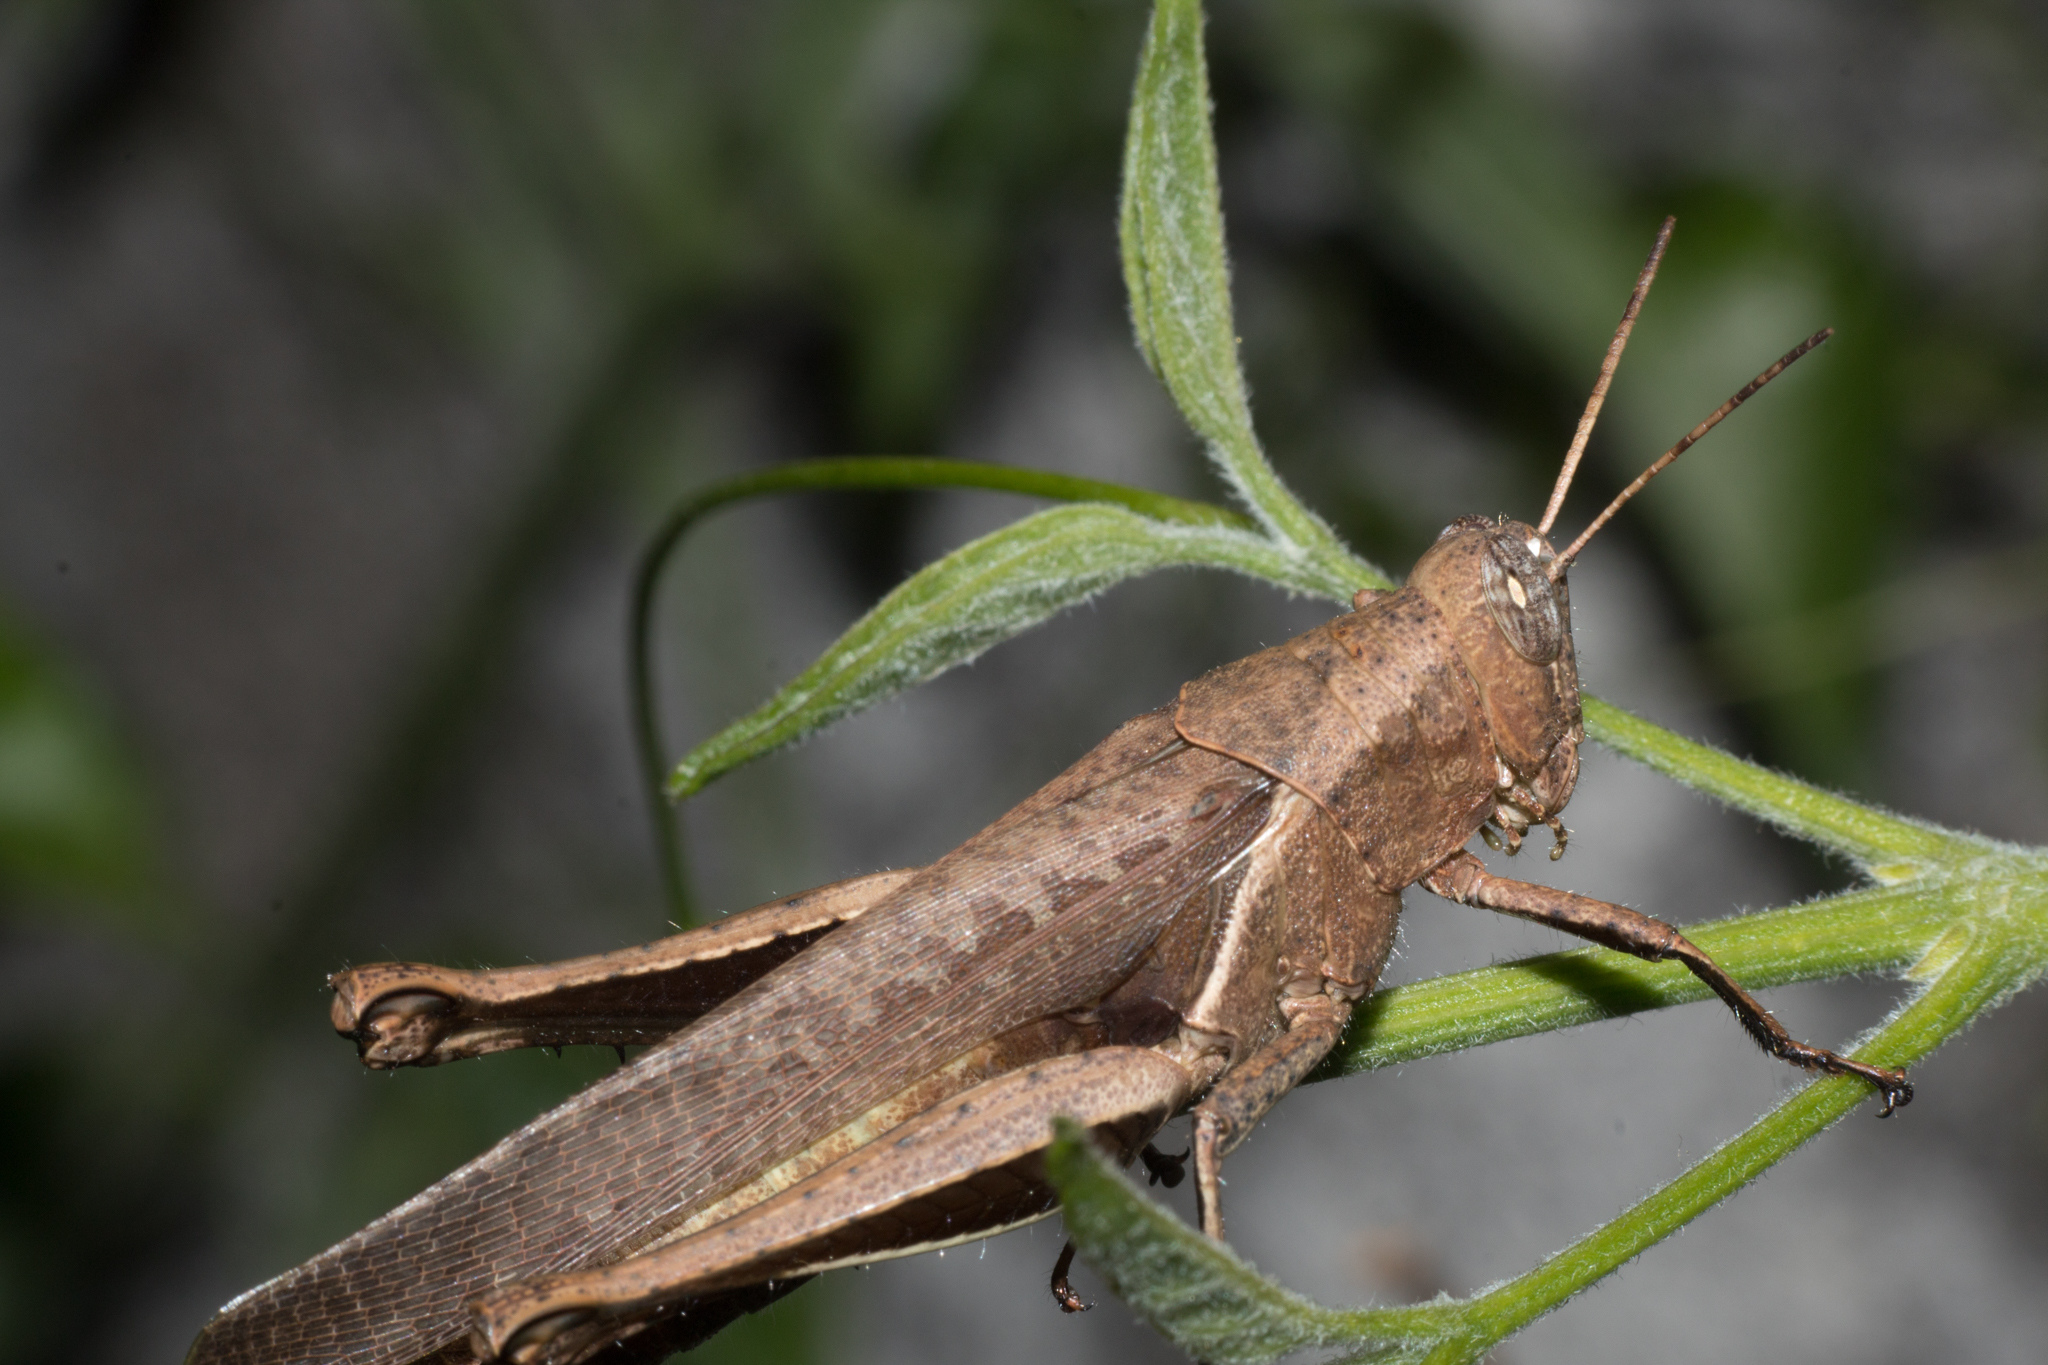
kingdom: Animalia
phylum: Arthropoda
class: Insecta
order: Orthoptera
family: Acrididae
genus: Abracris
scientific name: Abracris flavolineata
